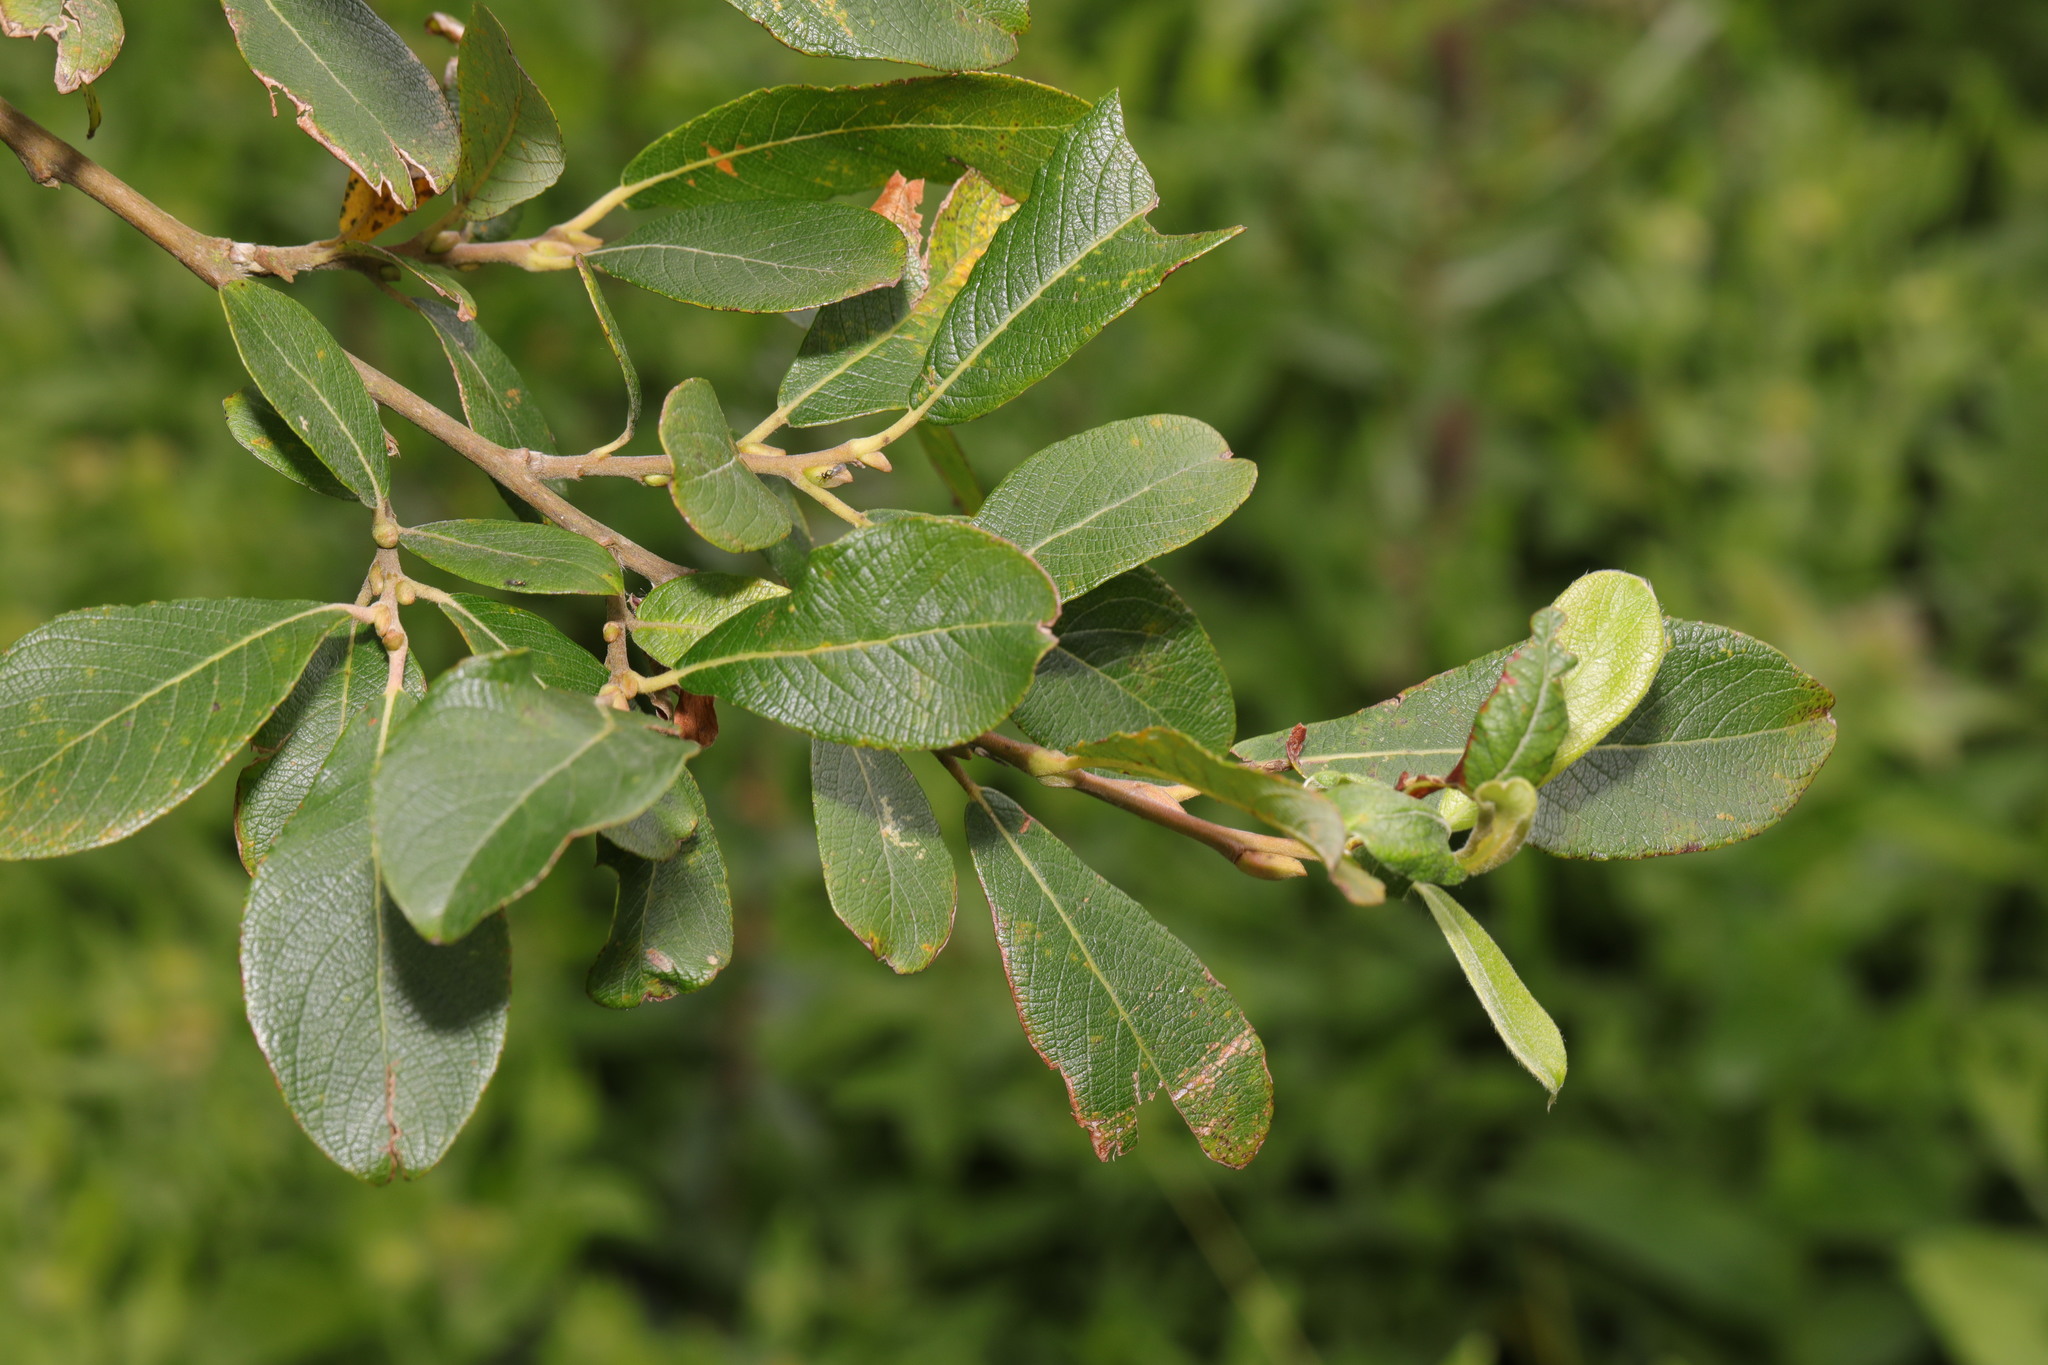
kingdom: Plantae
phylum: Tracheophyta
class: Magnoliopsida
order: Malpighiales
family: Salicaceae
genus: Salix
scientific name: Salix cinerea
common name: Common sallow
